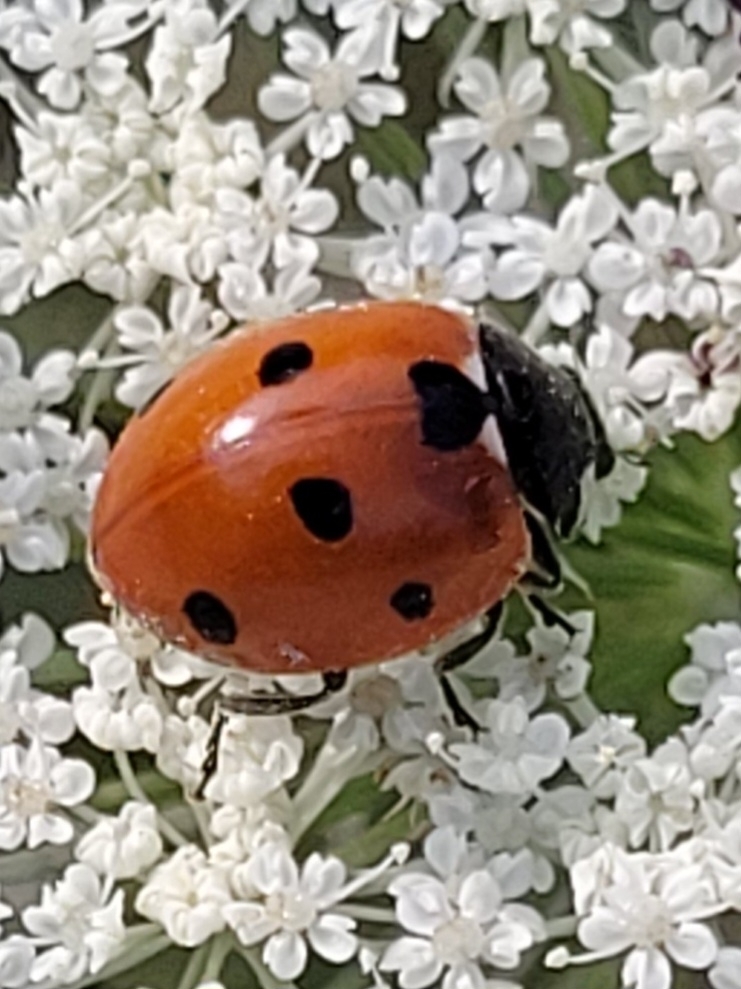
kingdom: Animalia
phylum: Arthropoda
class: Insecta
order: Coleoptera
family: Coccinellidae
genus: Coccinella
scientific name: Coccinella septempunctata
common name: Sevenspotted lady beetle
